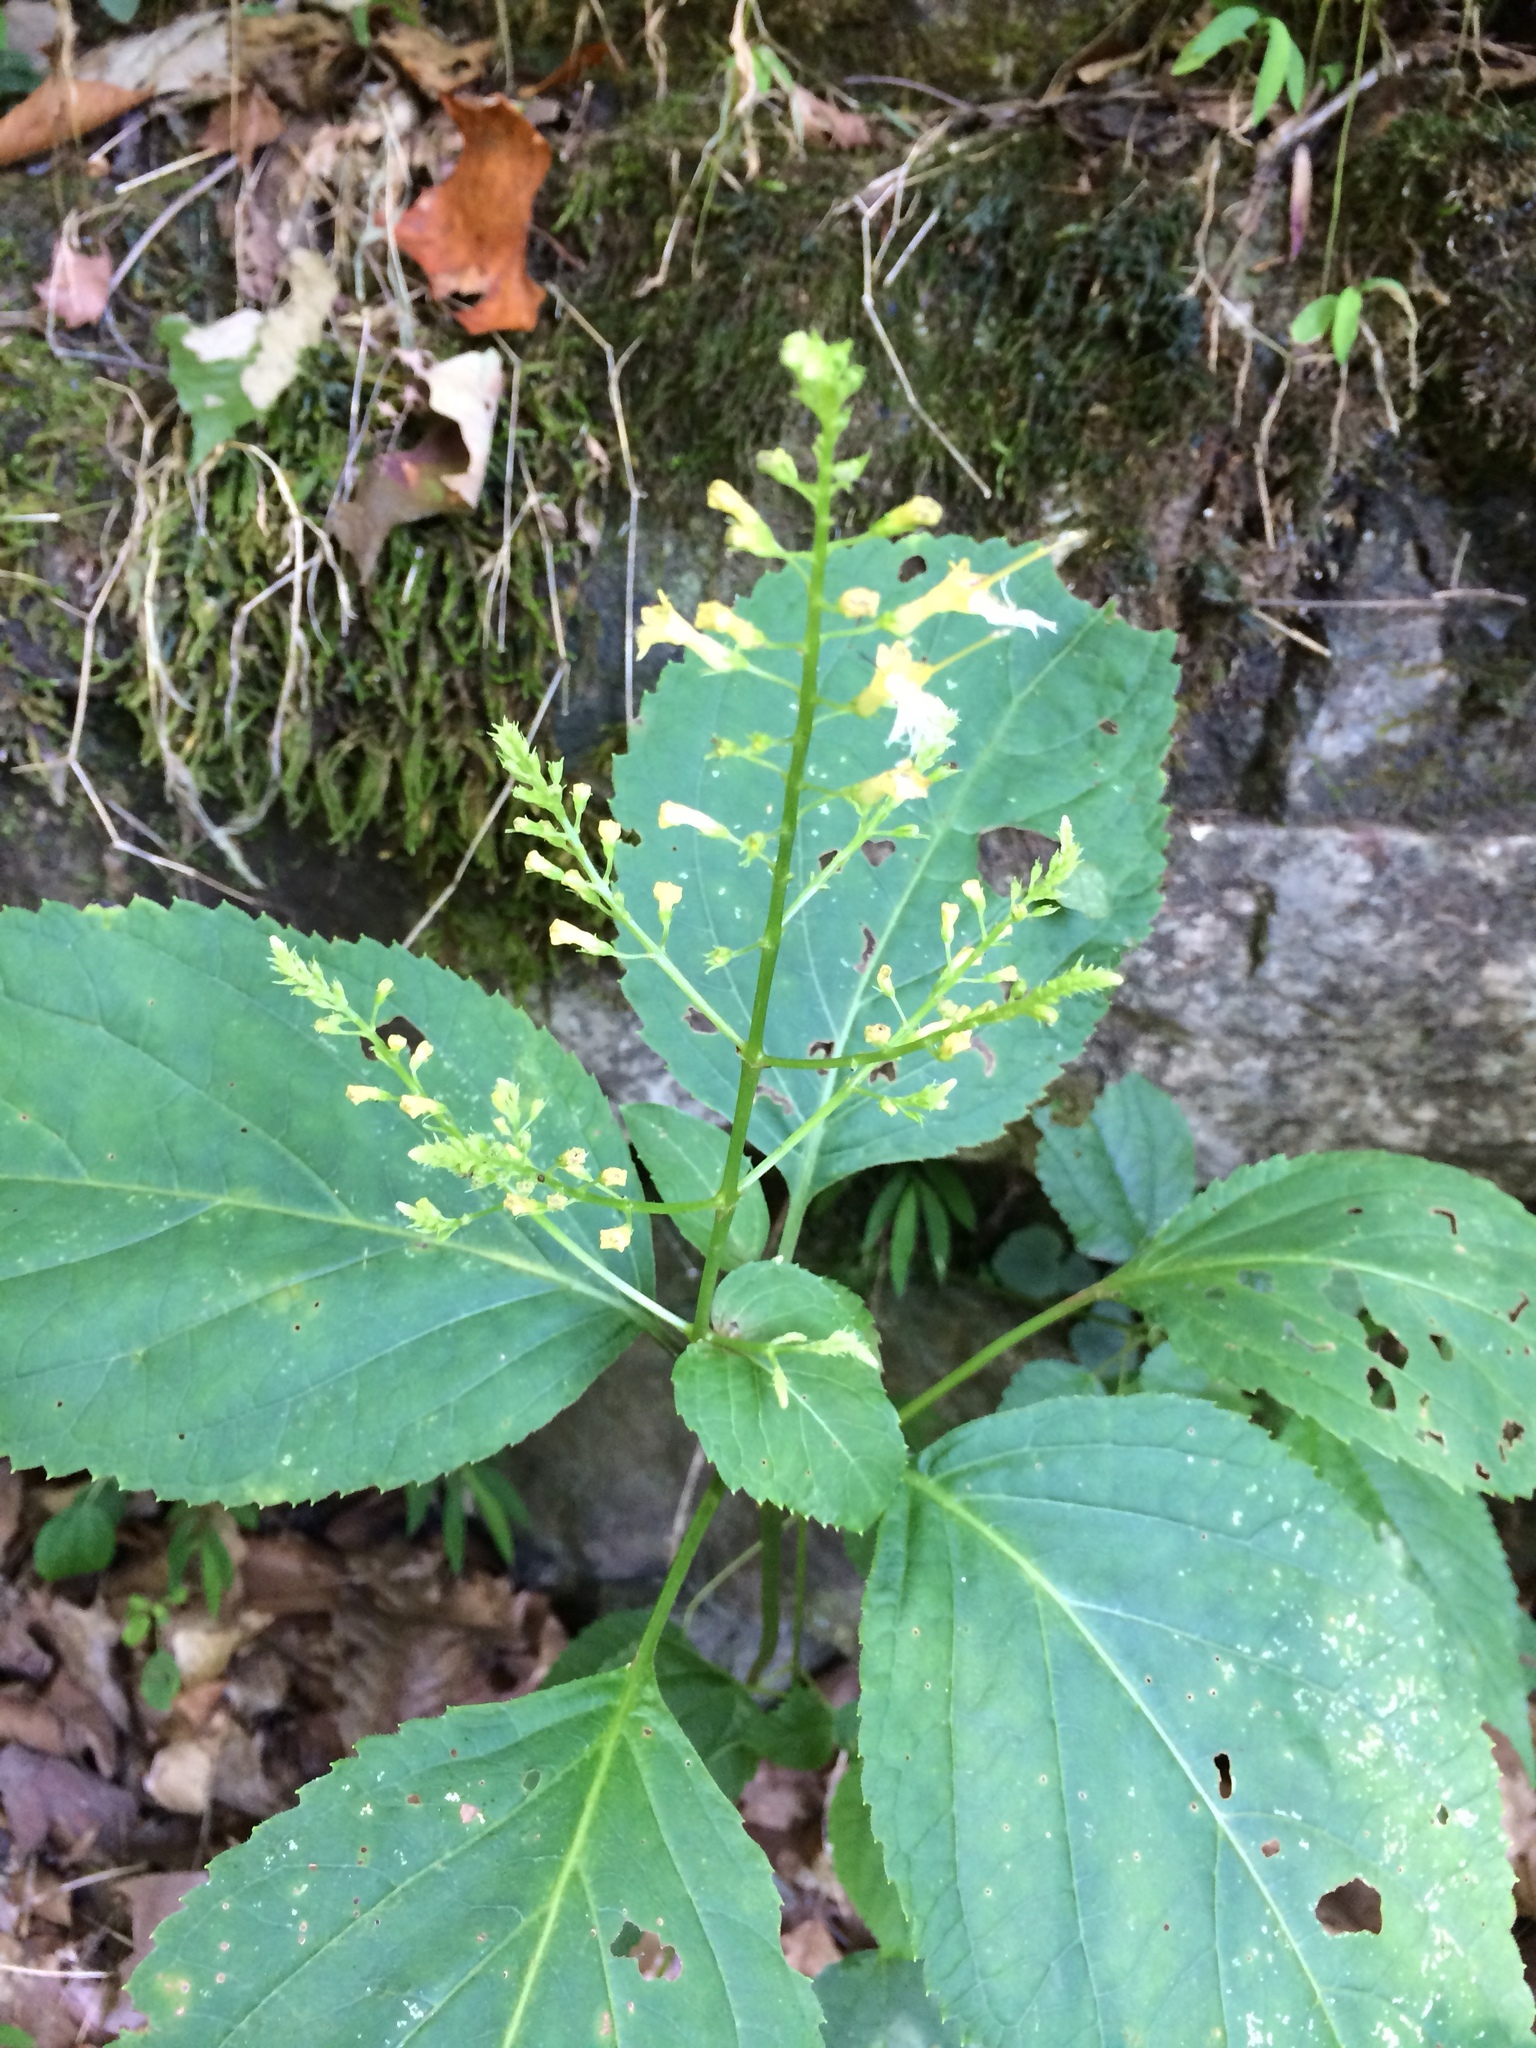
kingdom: Plantae
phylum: Tracheophyta
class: Magnoliopsida
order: Lamiales
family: Lamiaceae
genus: Collinsonia
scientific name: Collinsonia canadensis
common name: Northern horsebalm
